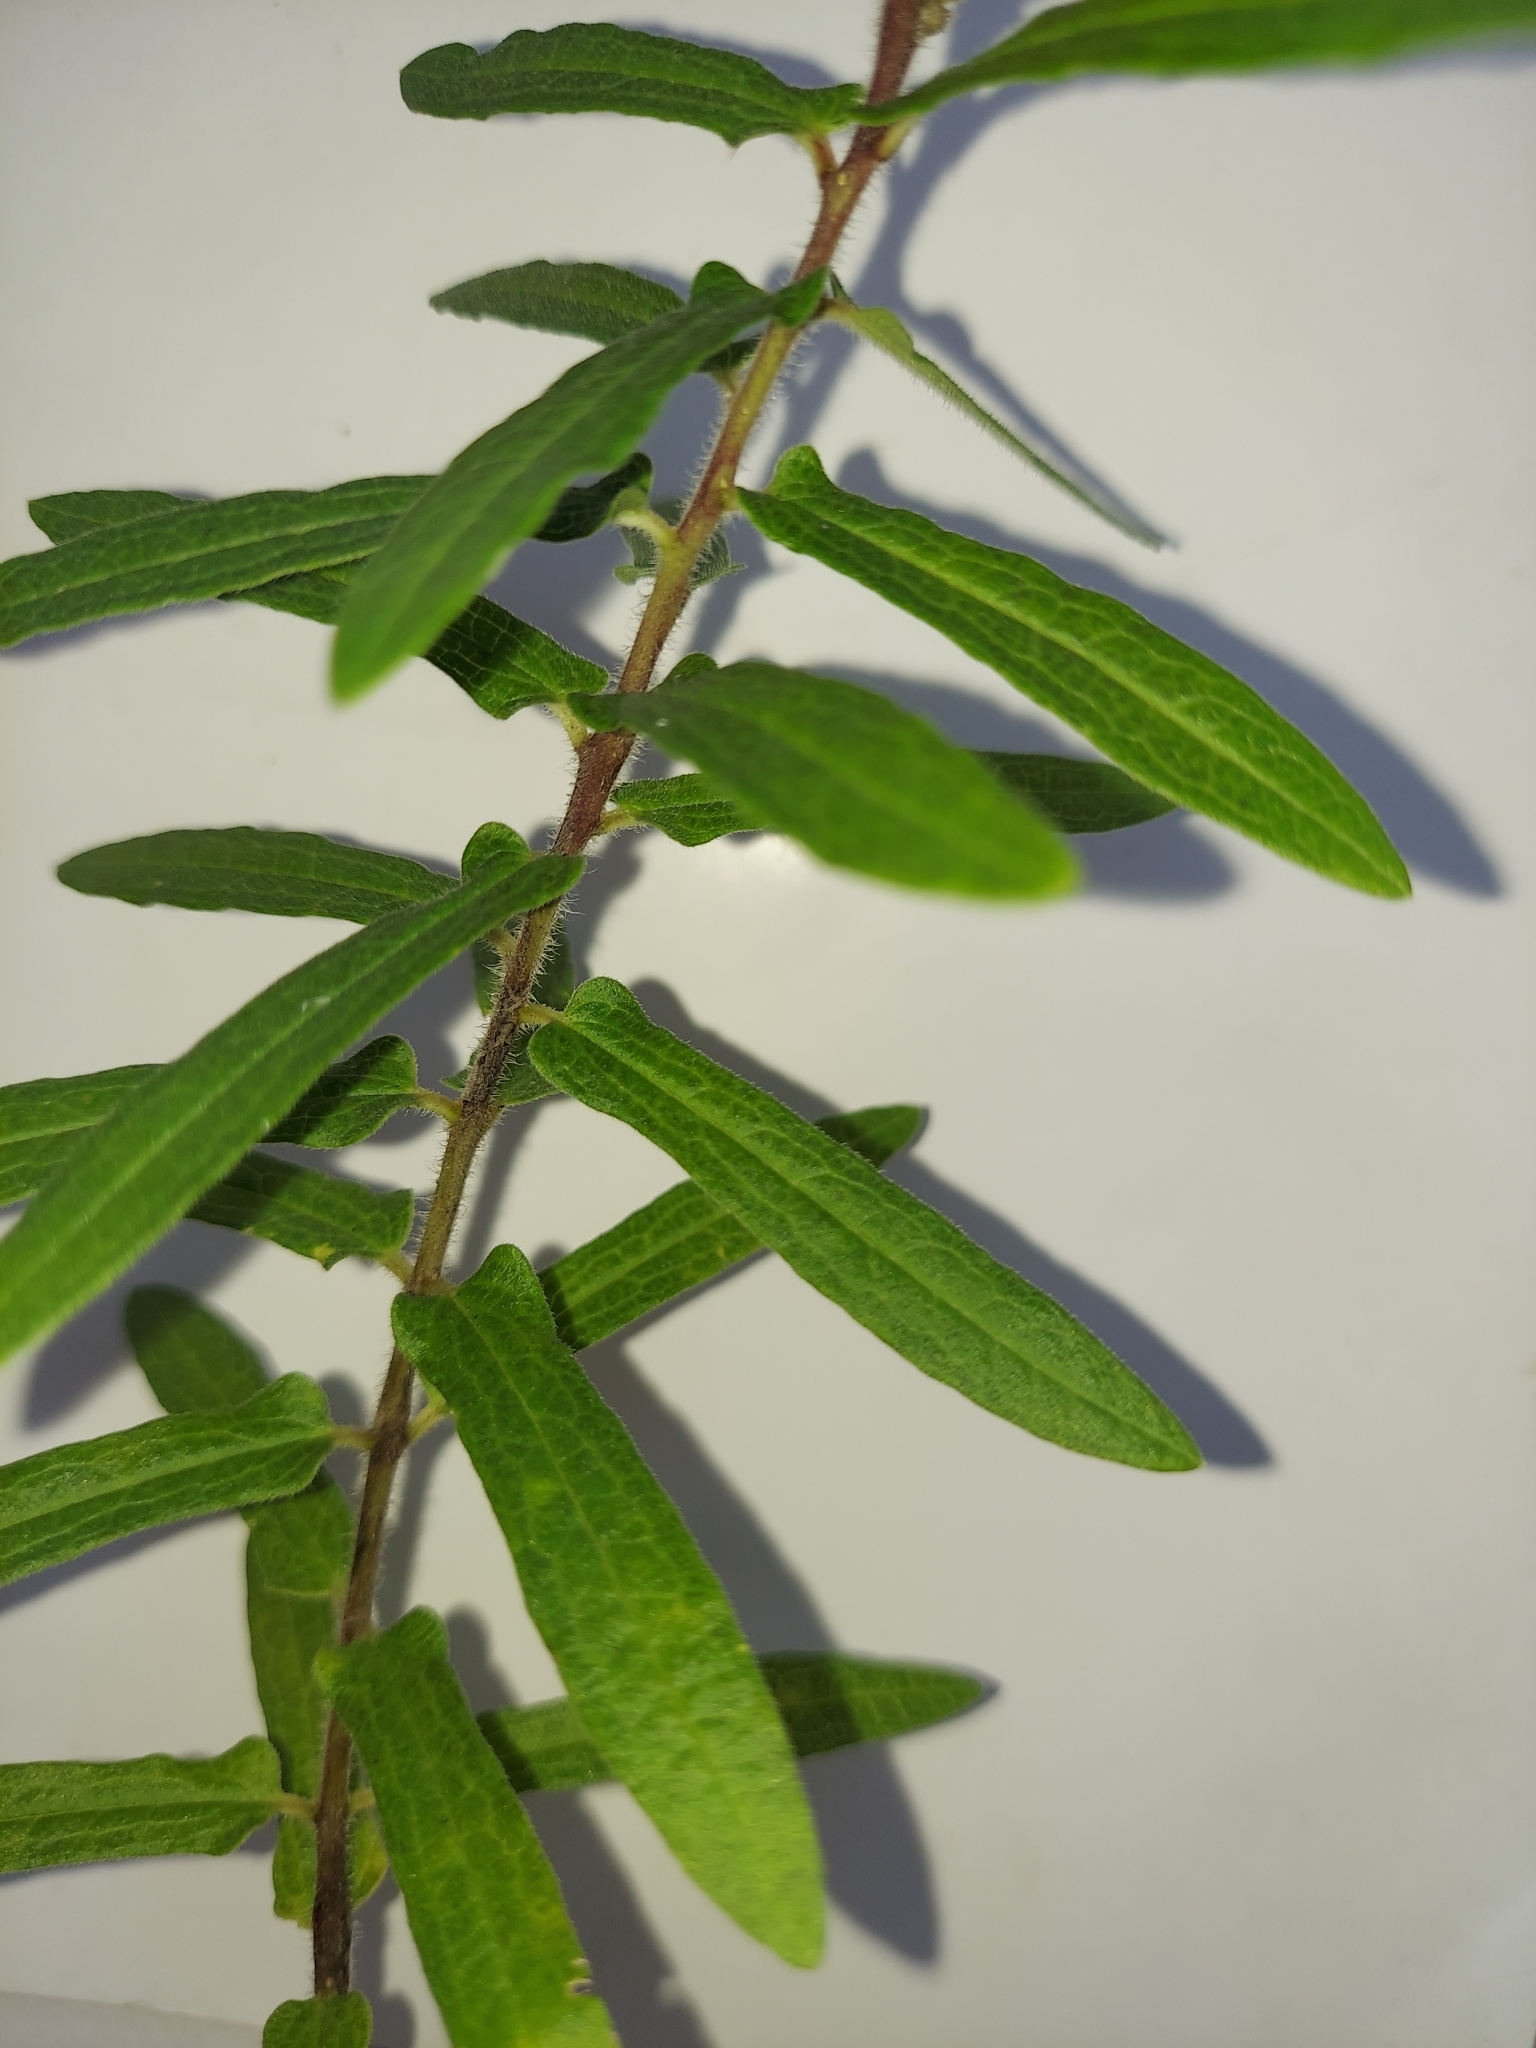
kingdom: Plantae
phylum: Tracheophyta
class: Magnoliopsida
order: Gentianales
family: Apocynaceae
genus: Asclepias
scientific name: Asclepias tuberosa
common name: Butterfly milkweed
